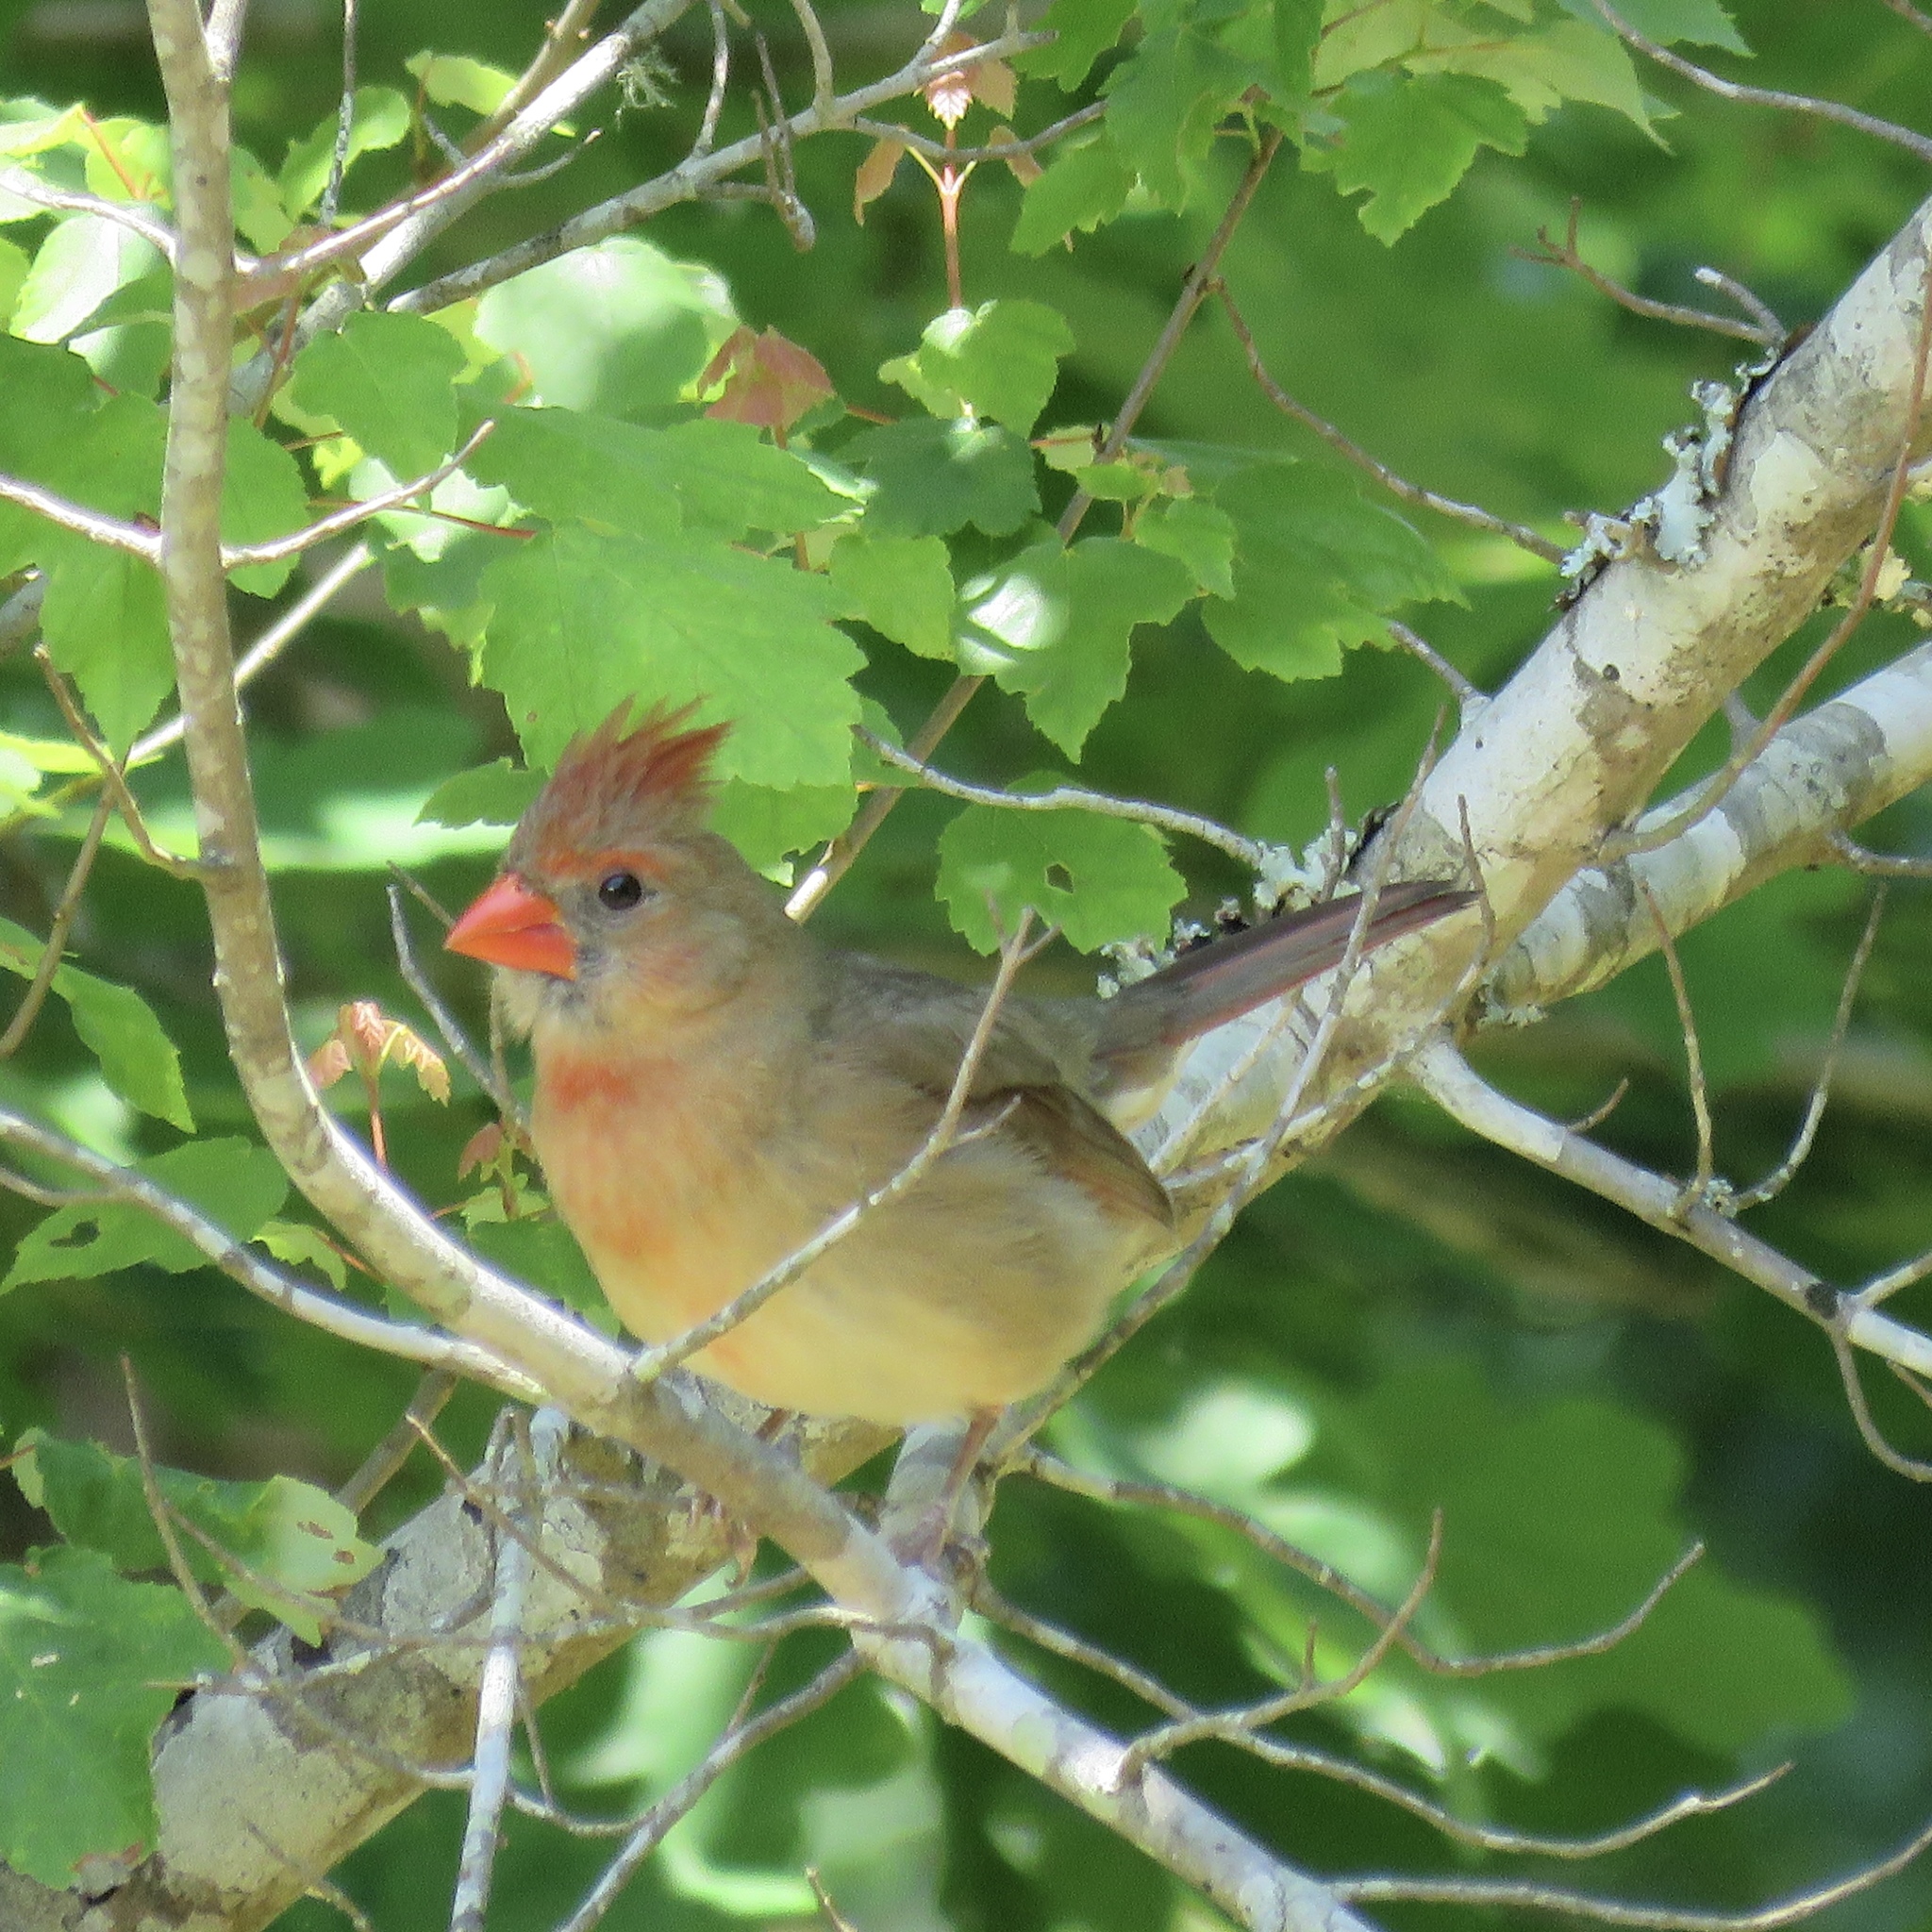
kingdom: Animalia
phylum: Chordata
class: Aves
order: Passeriformes
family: Cardinalidae
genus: Cardinalis
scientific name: Cardinalis cardinalis
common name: Northern cardinal
